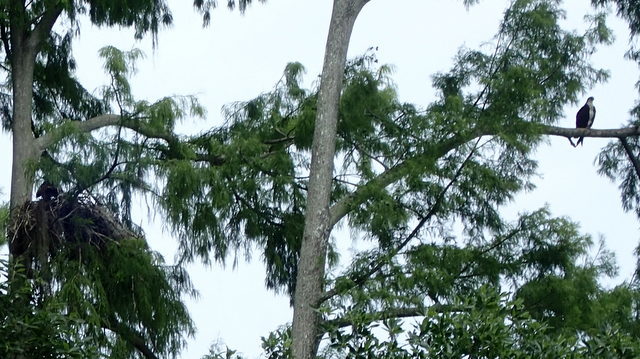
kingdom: Animalia
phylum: Chordata
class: Aves
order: Accipitriformes
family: Pandionidae
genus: Pandion
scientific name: Pandion haliaetus
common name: Osprey
